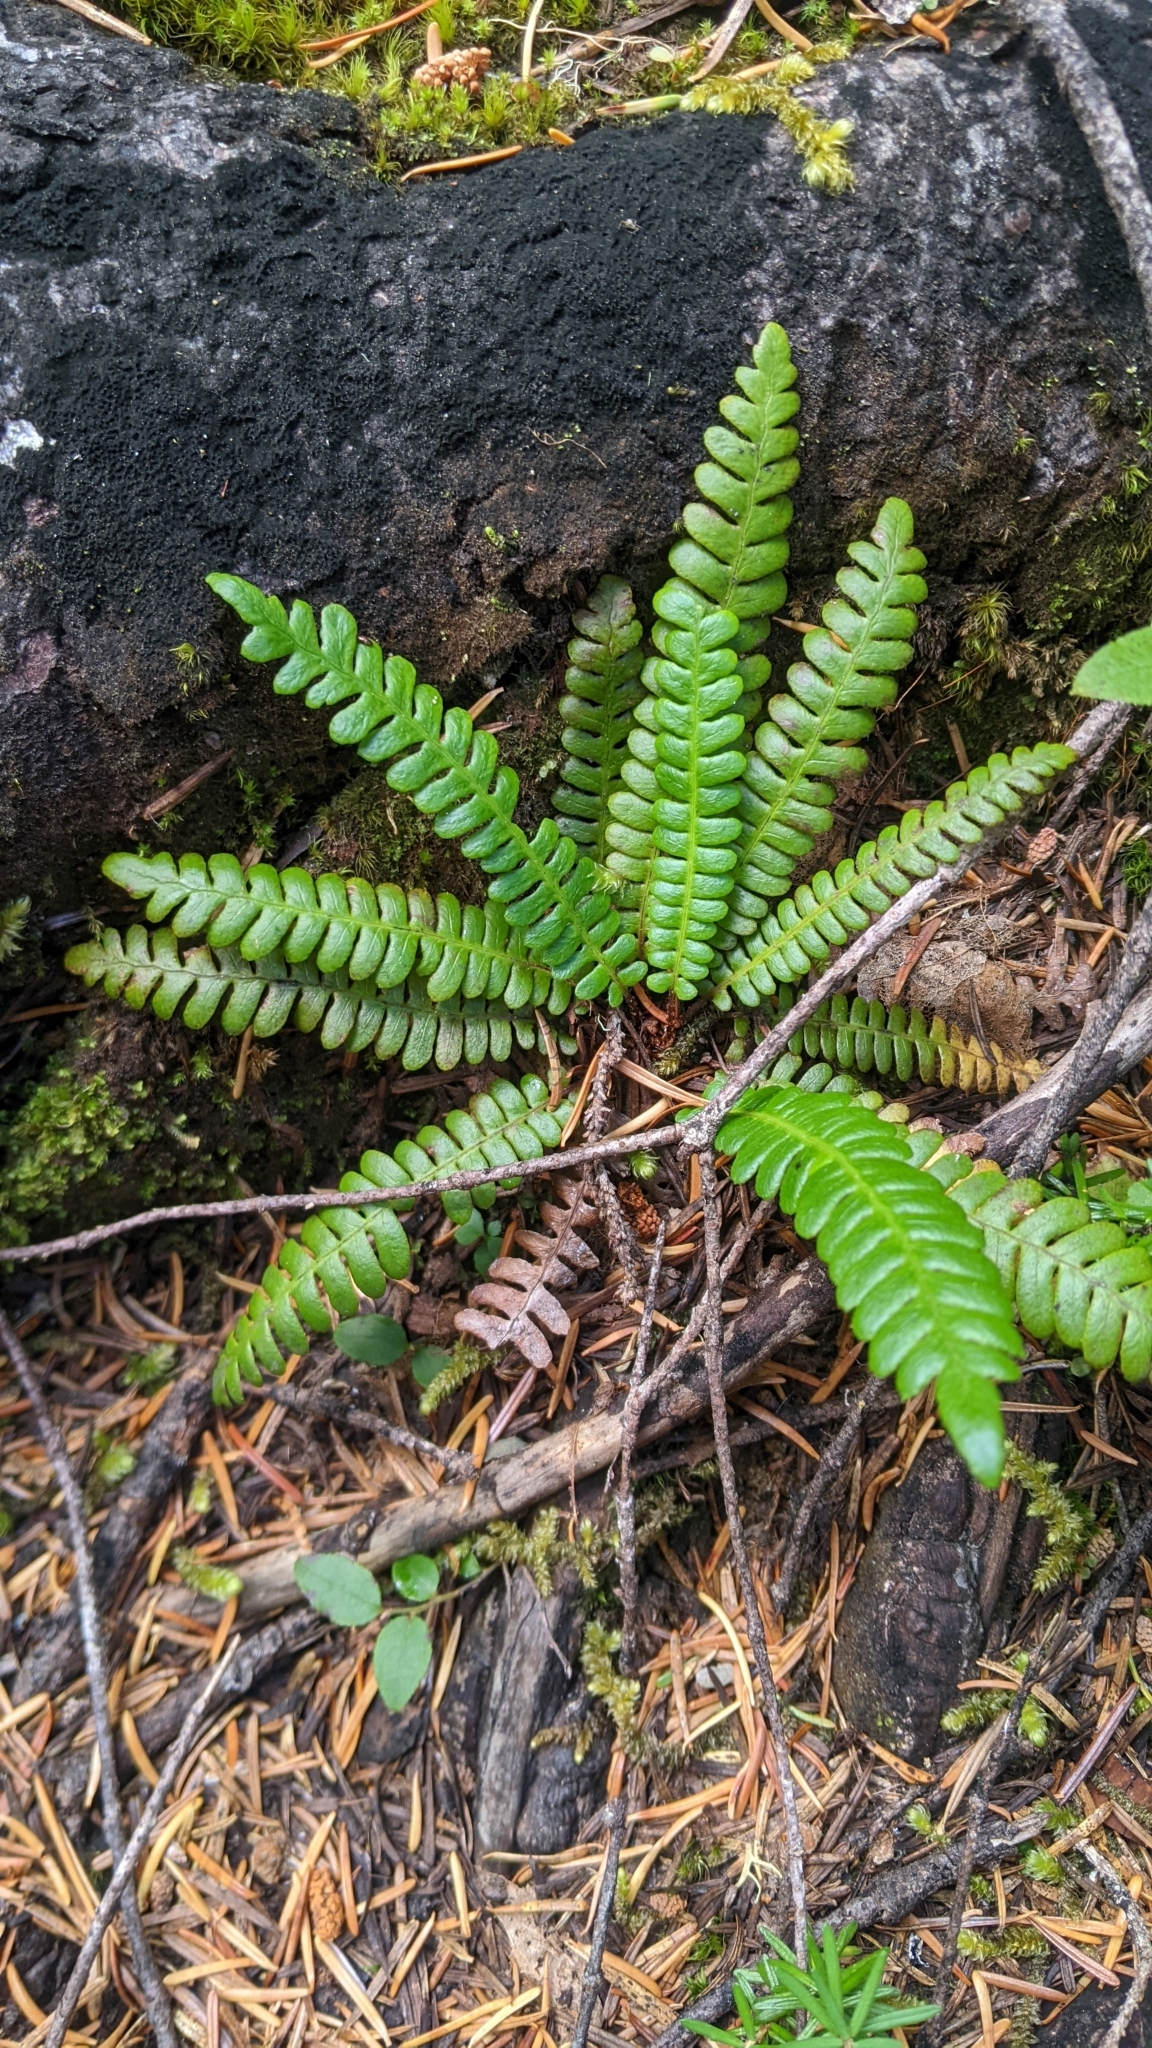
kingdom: Plantae
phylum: Tracheophyta
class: Polypodiopsida
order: Polypodiales
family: Blechnaceae
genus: Struthiopteris
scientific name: Struthiopteris spicant
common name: Deer fern
